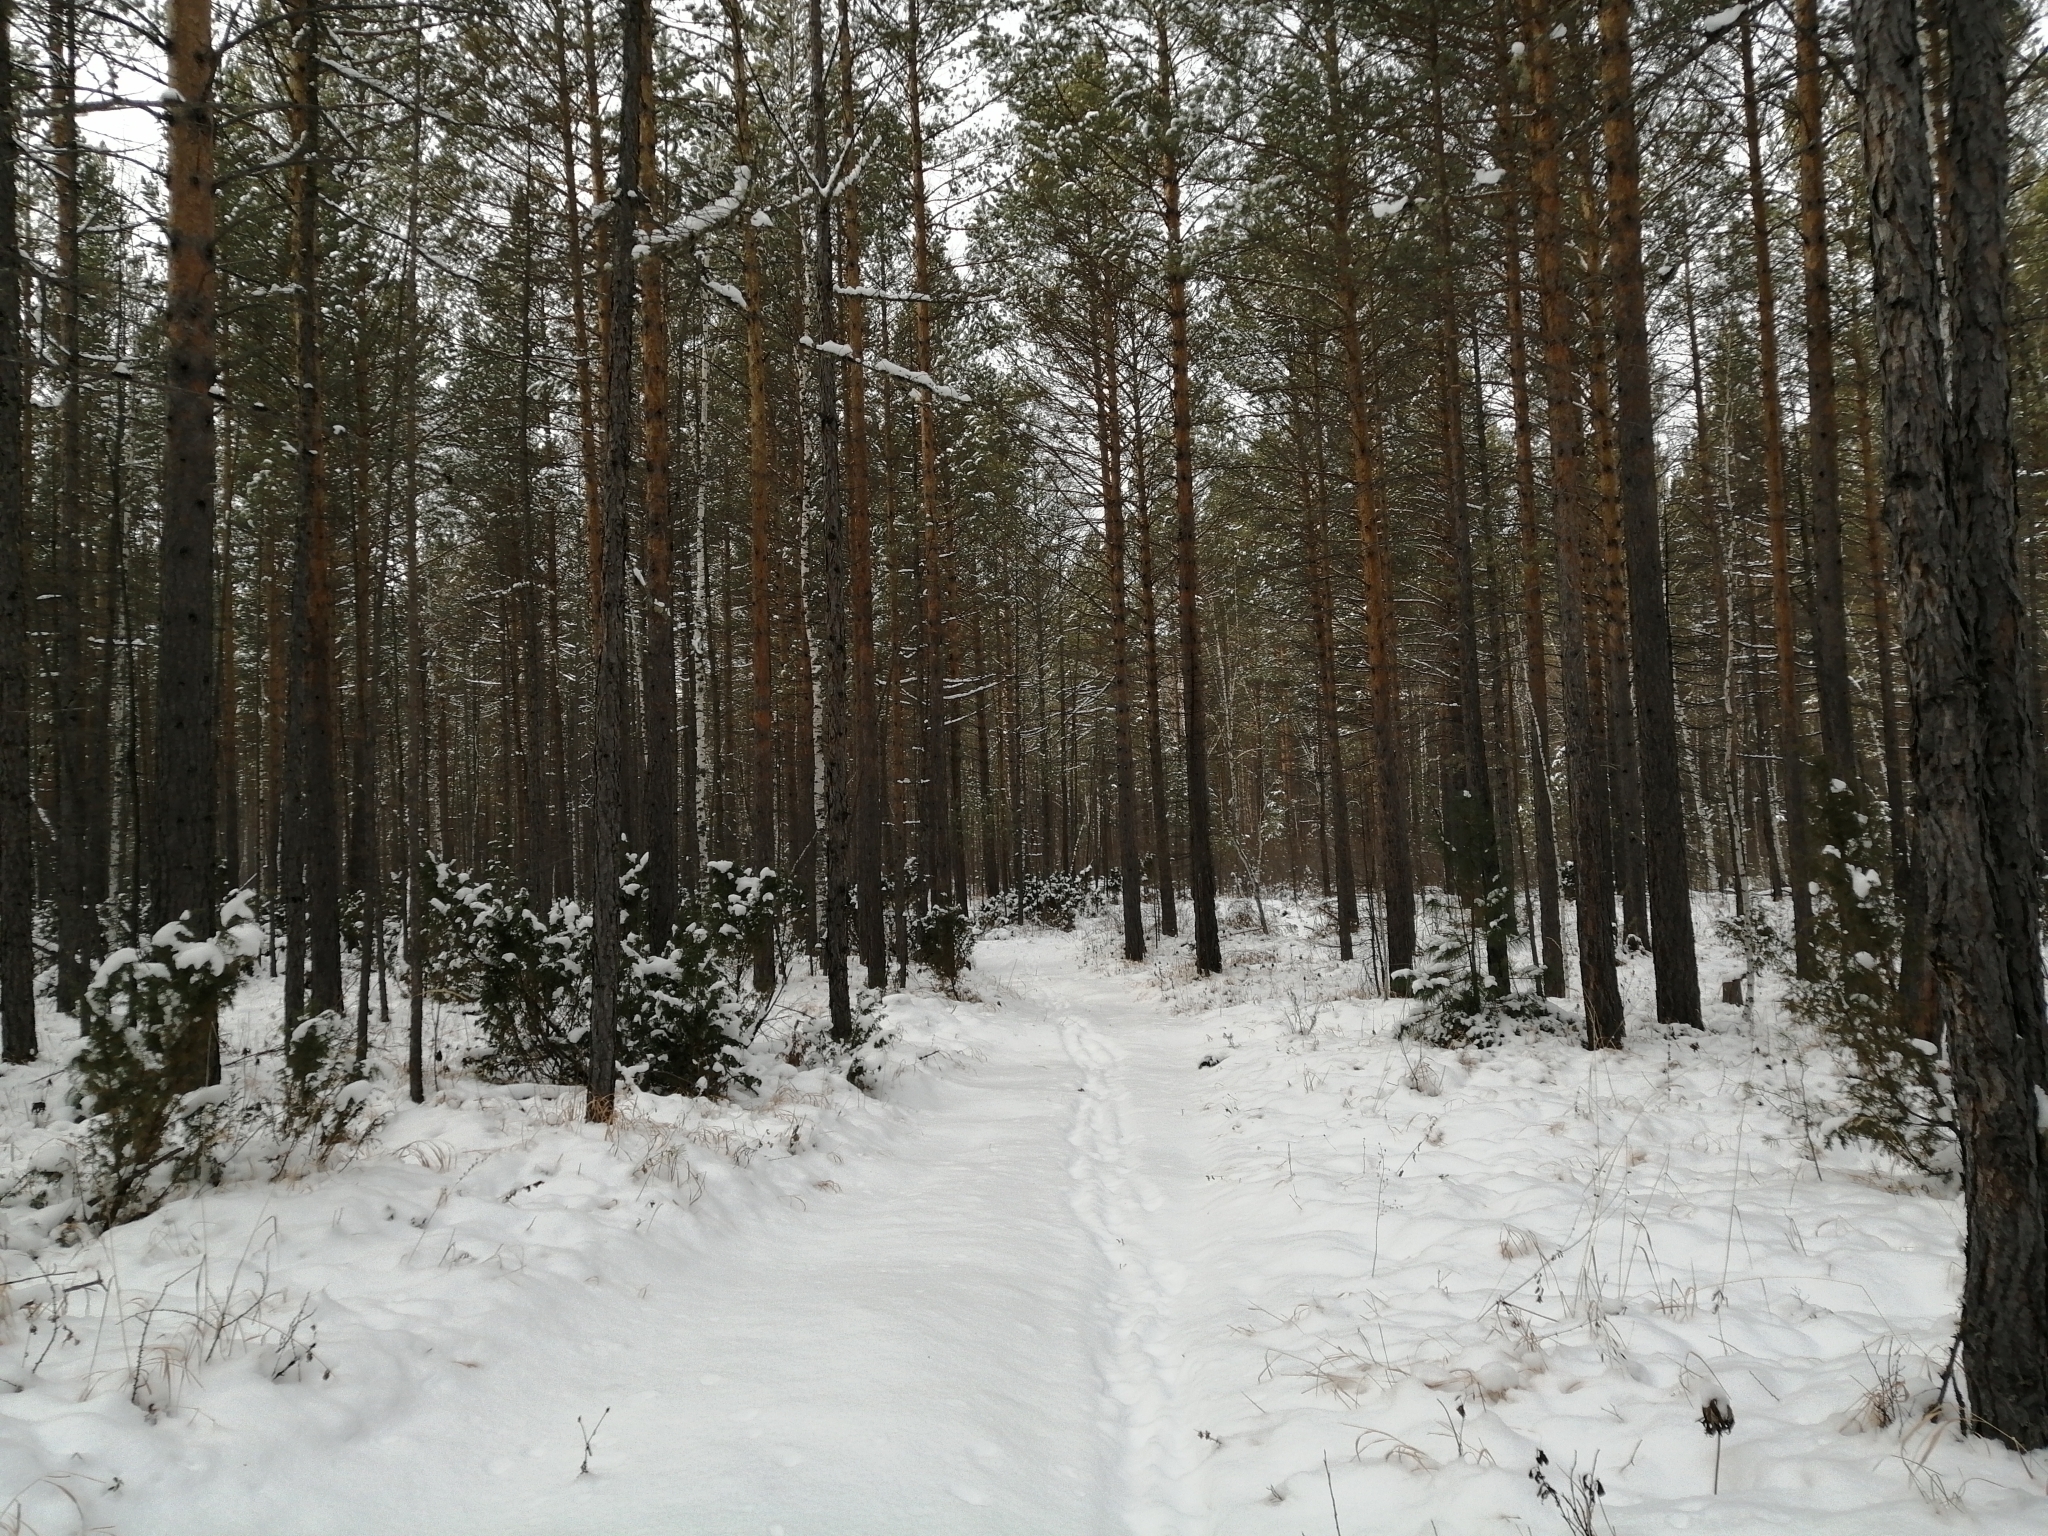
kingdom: Plantae
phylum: Tracheophyta
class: Pinopsida
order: Pinales
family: Pinaceae
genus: Pinus
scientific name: Pinus sylvestris
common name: Scots pine
